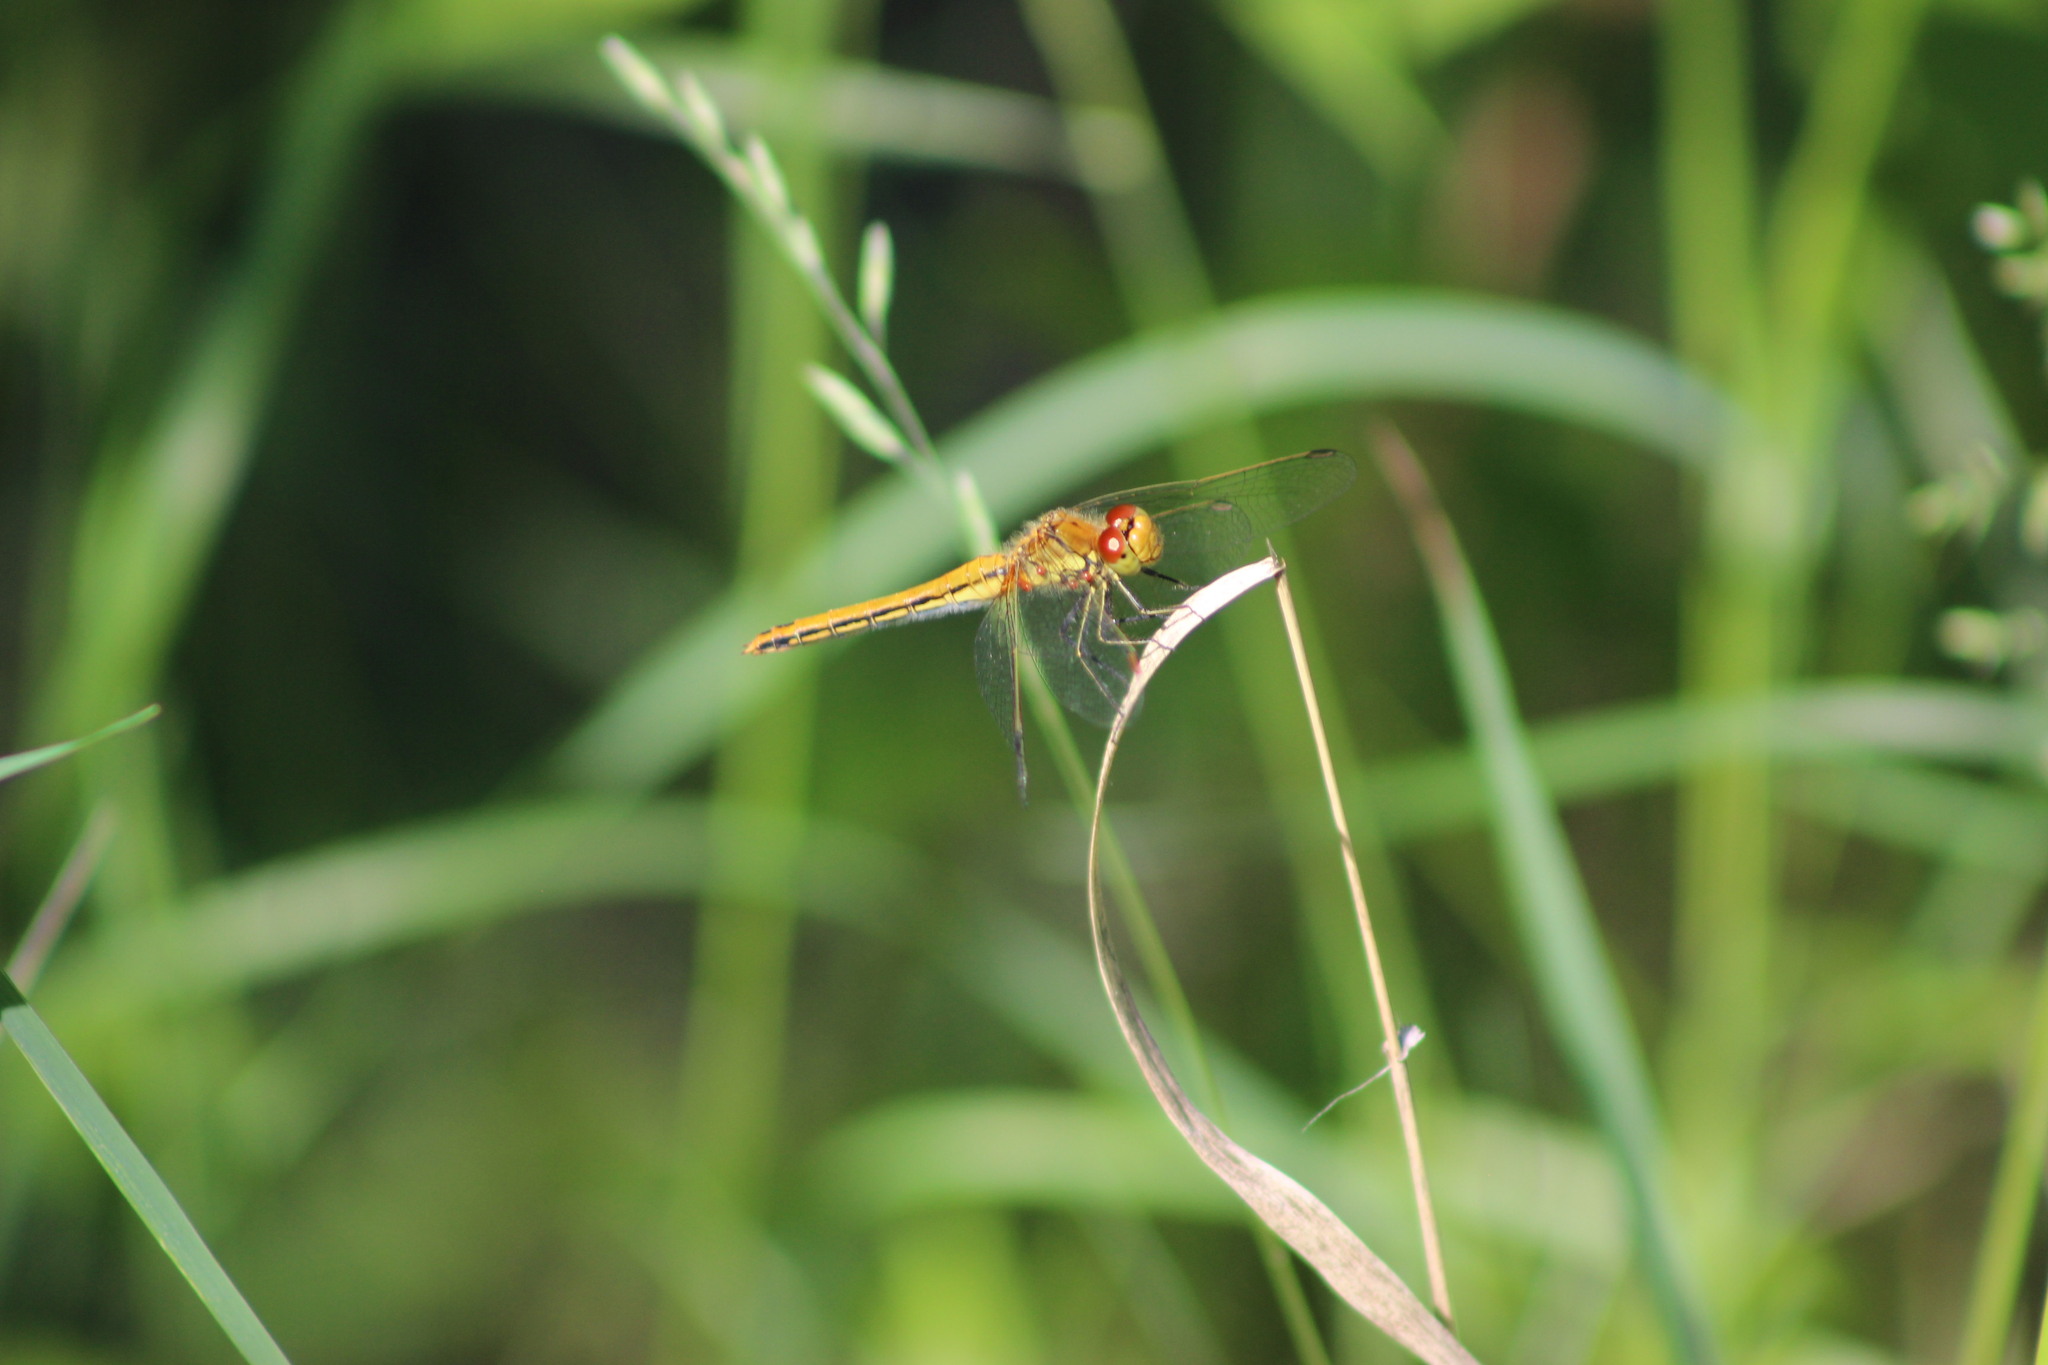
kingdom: Animalia
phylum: Arthropoda
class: Insecta
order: Odonata
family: Libellulidae
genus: Sympetrum
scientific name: Sympetrum flaveolum
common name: Yellow-winged darter
